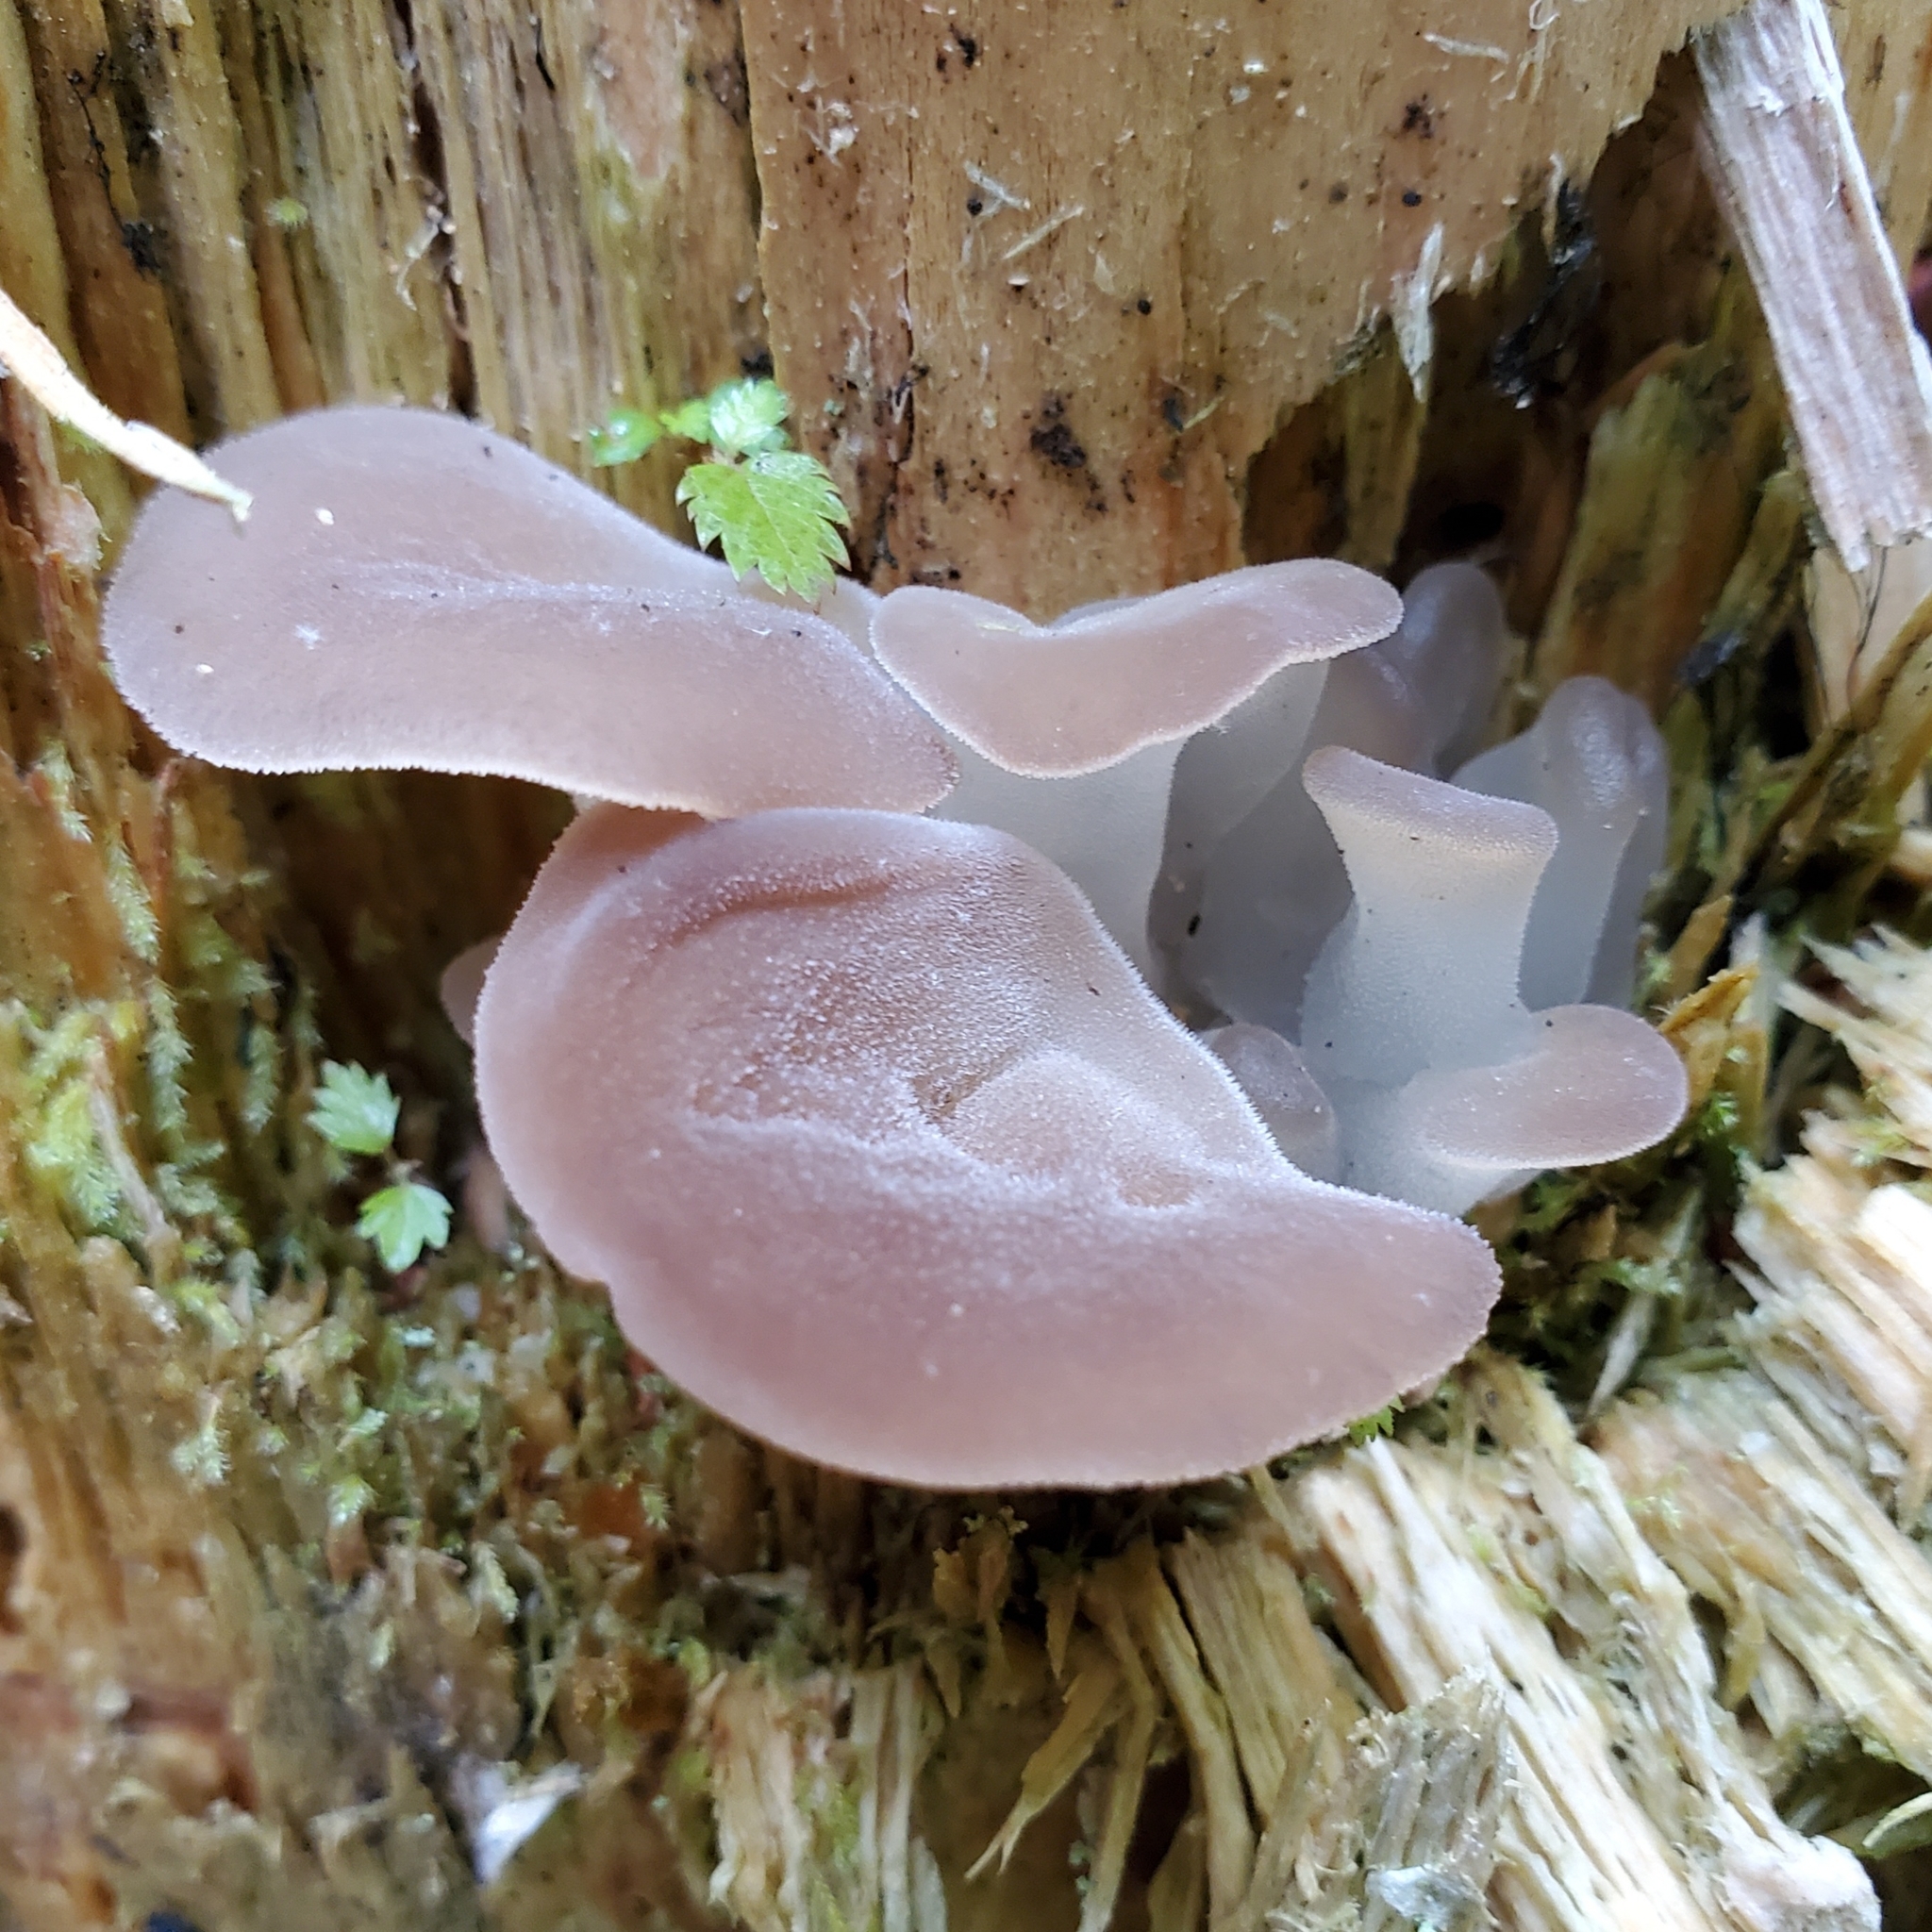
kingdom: Fungi
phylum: Basidiomycota
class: Agaricomycetes
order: Auriculariales
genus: Pseudohydnum
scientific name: Pseudohydnum gelatinosum
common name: Jelly tongue
